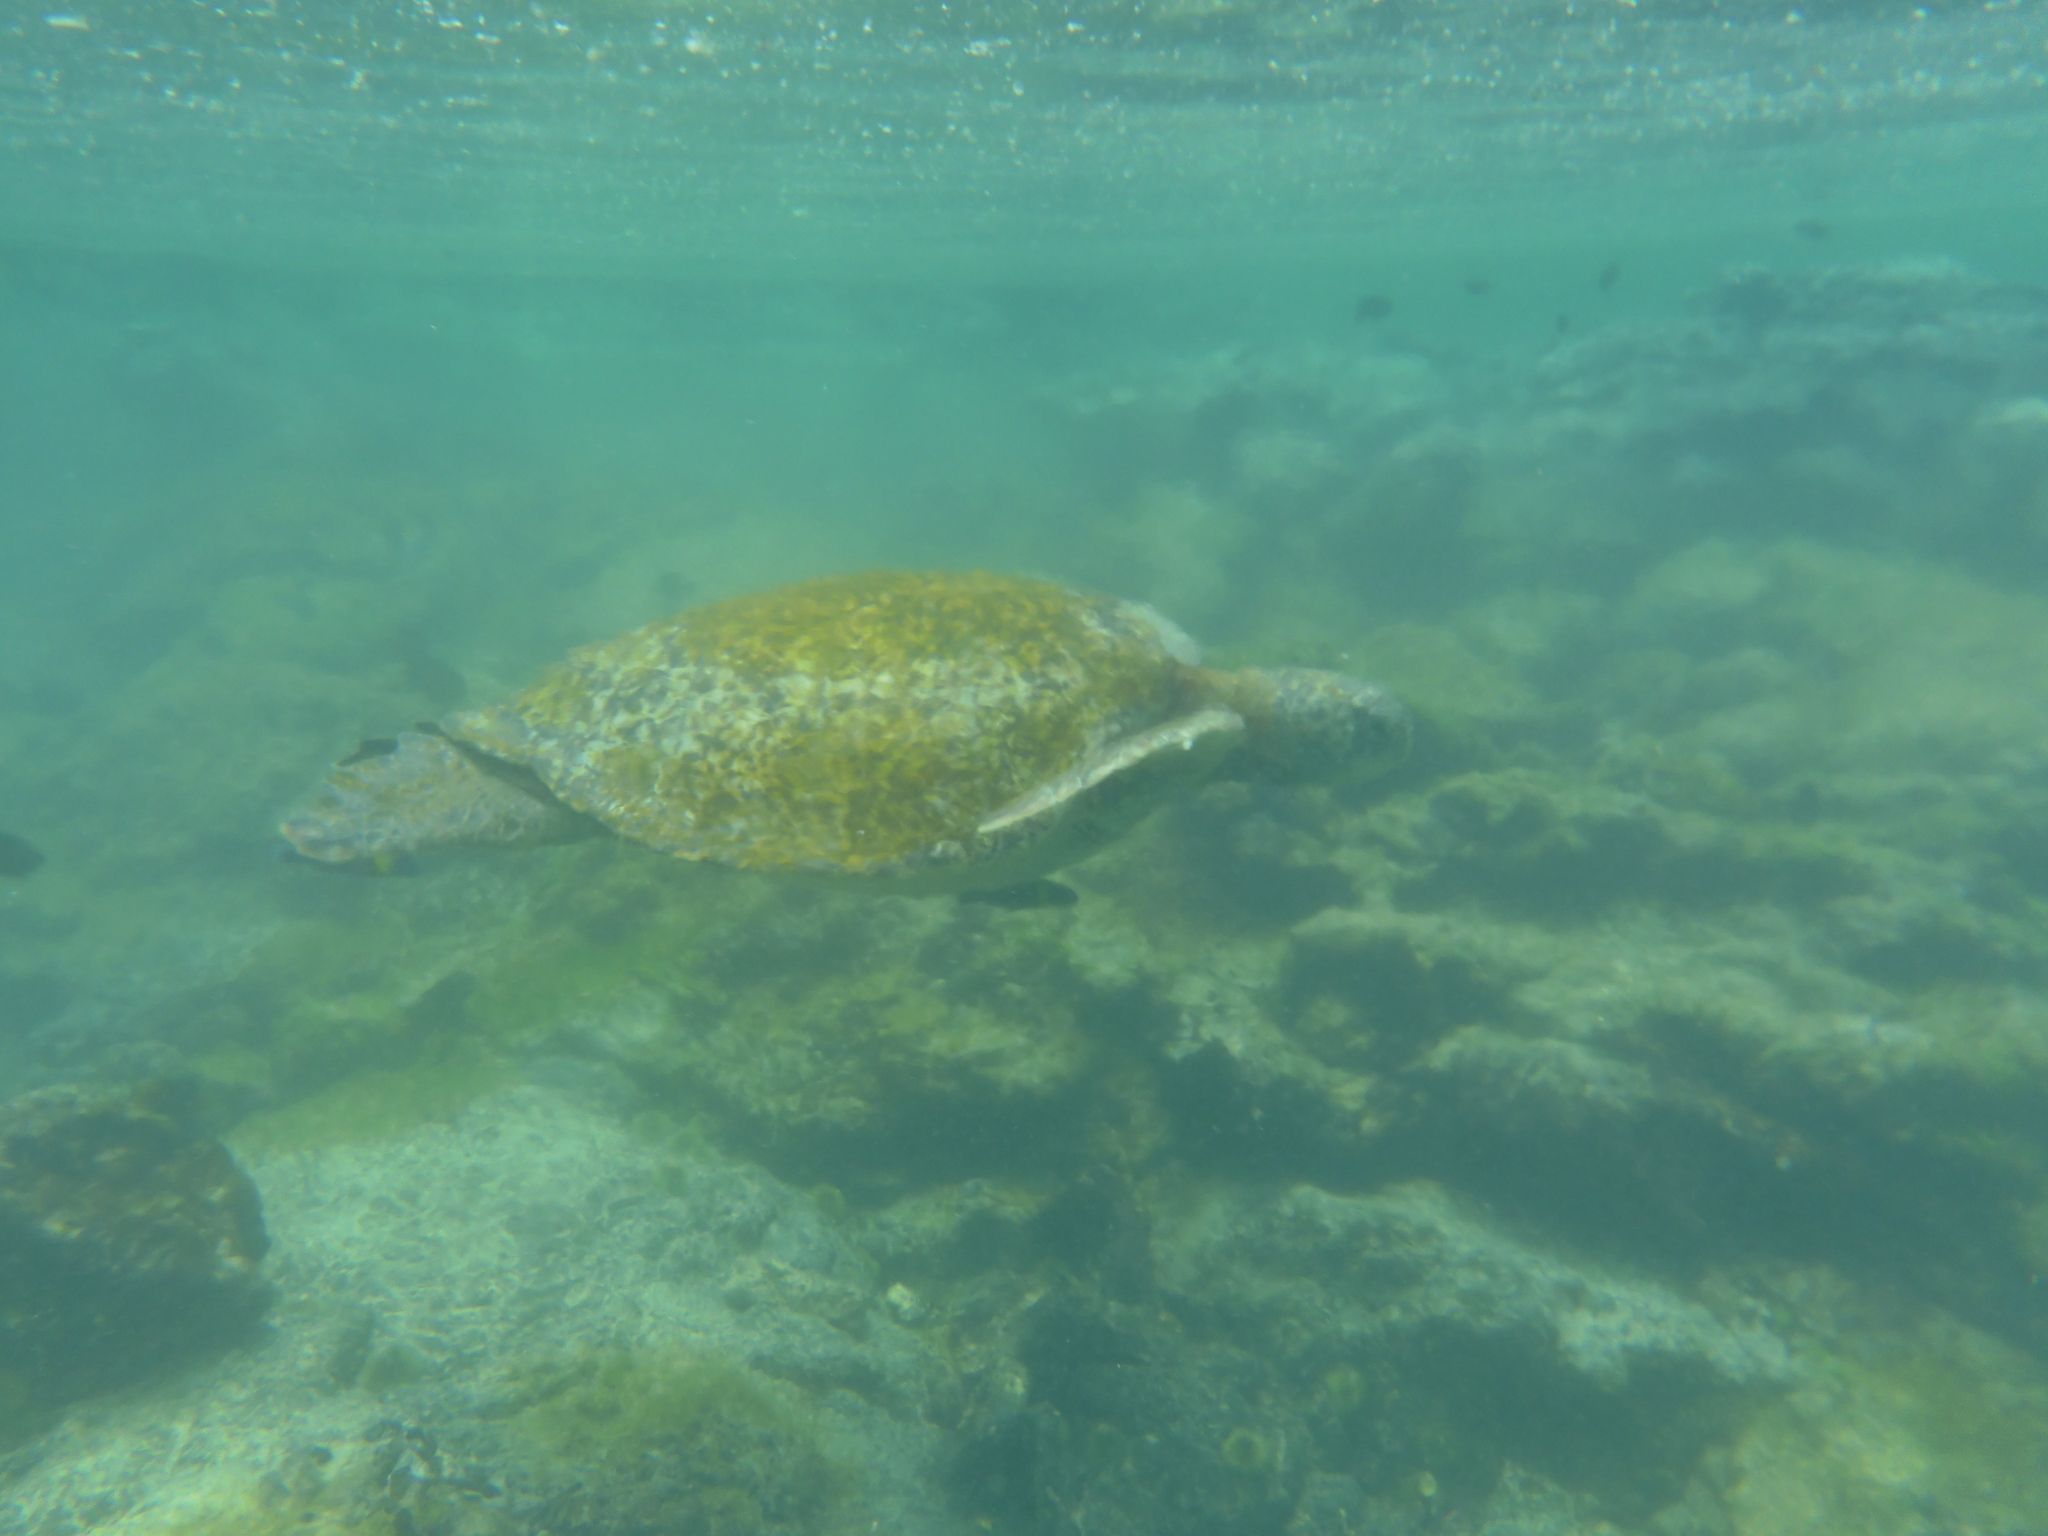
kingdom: Animalia
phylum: Chordata
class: Testudines
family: Cheloniidae
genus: Chelonia
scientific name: Chelonia mydas
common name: Green turtle
